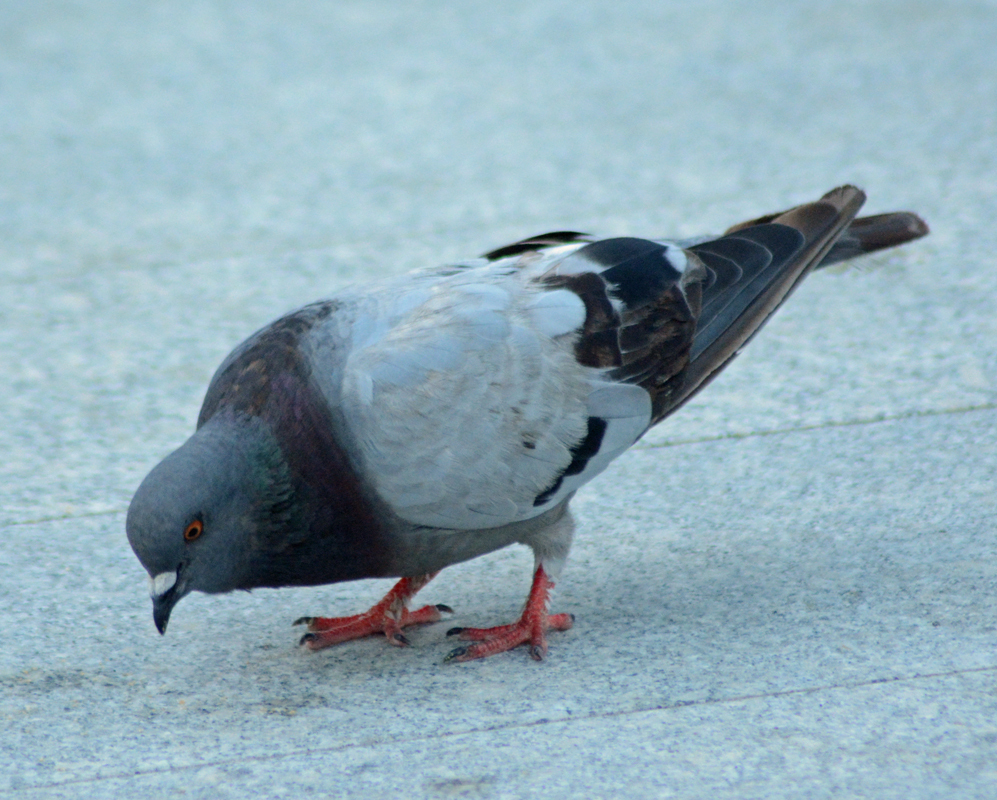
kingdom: Animalia
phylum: Chordata
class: Aves
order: Columbiformes
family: Columbidae
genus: Columba
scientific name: Columba livia
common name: Rock pigeon
